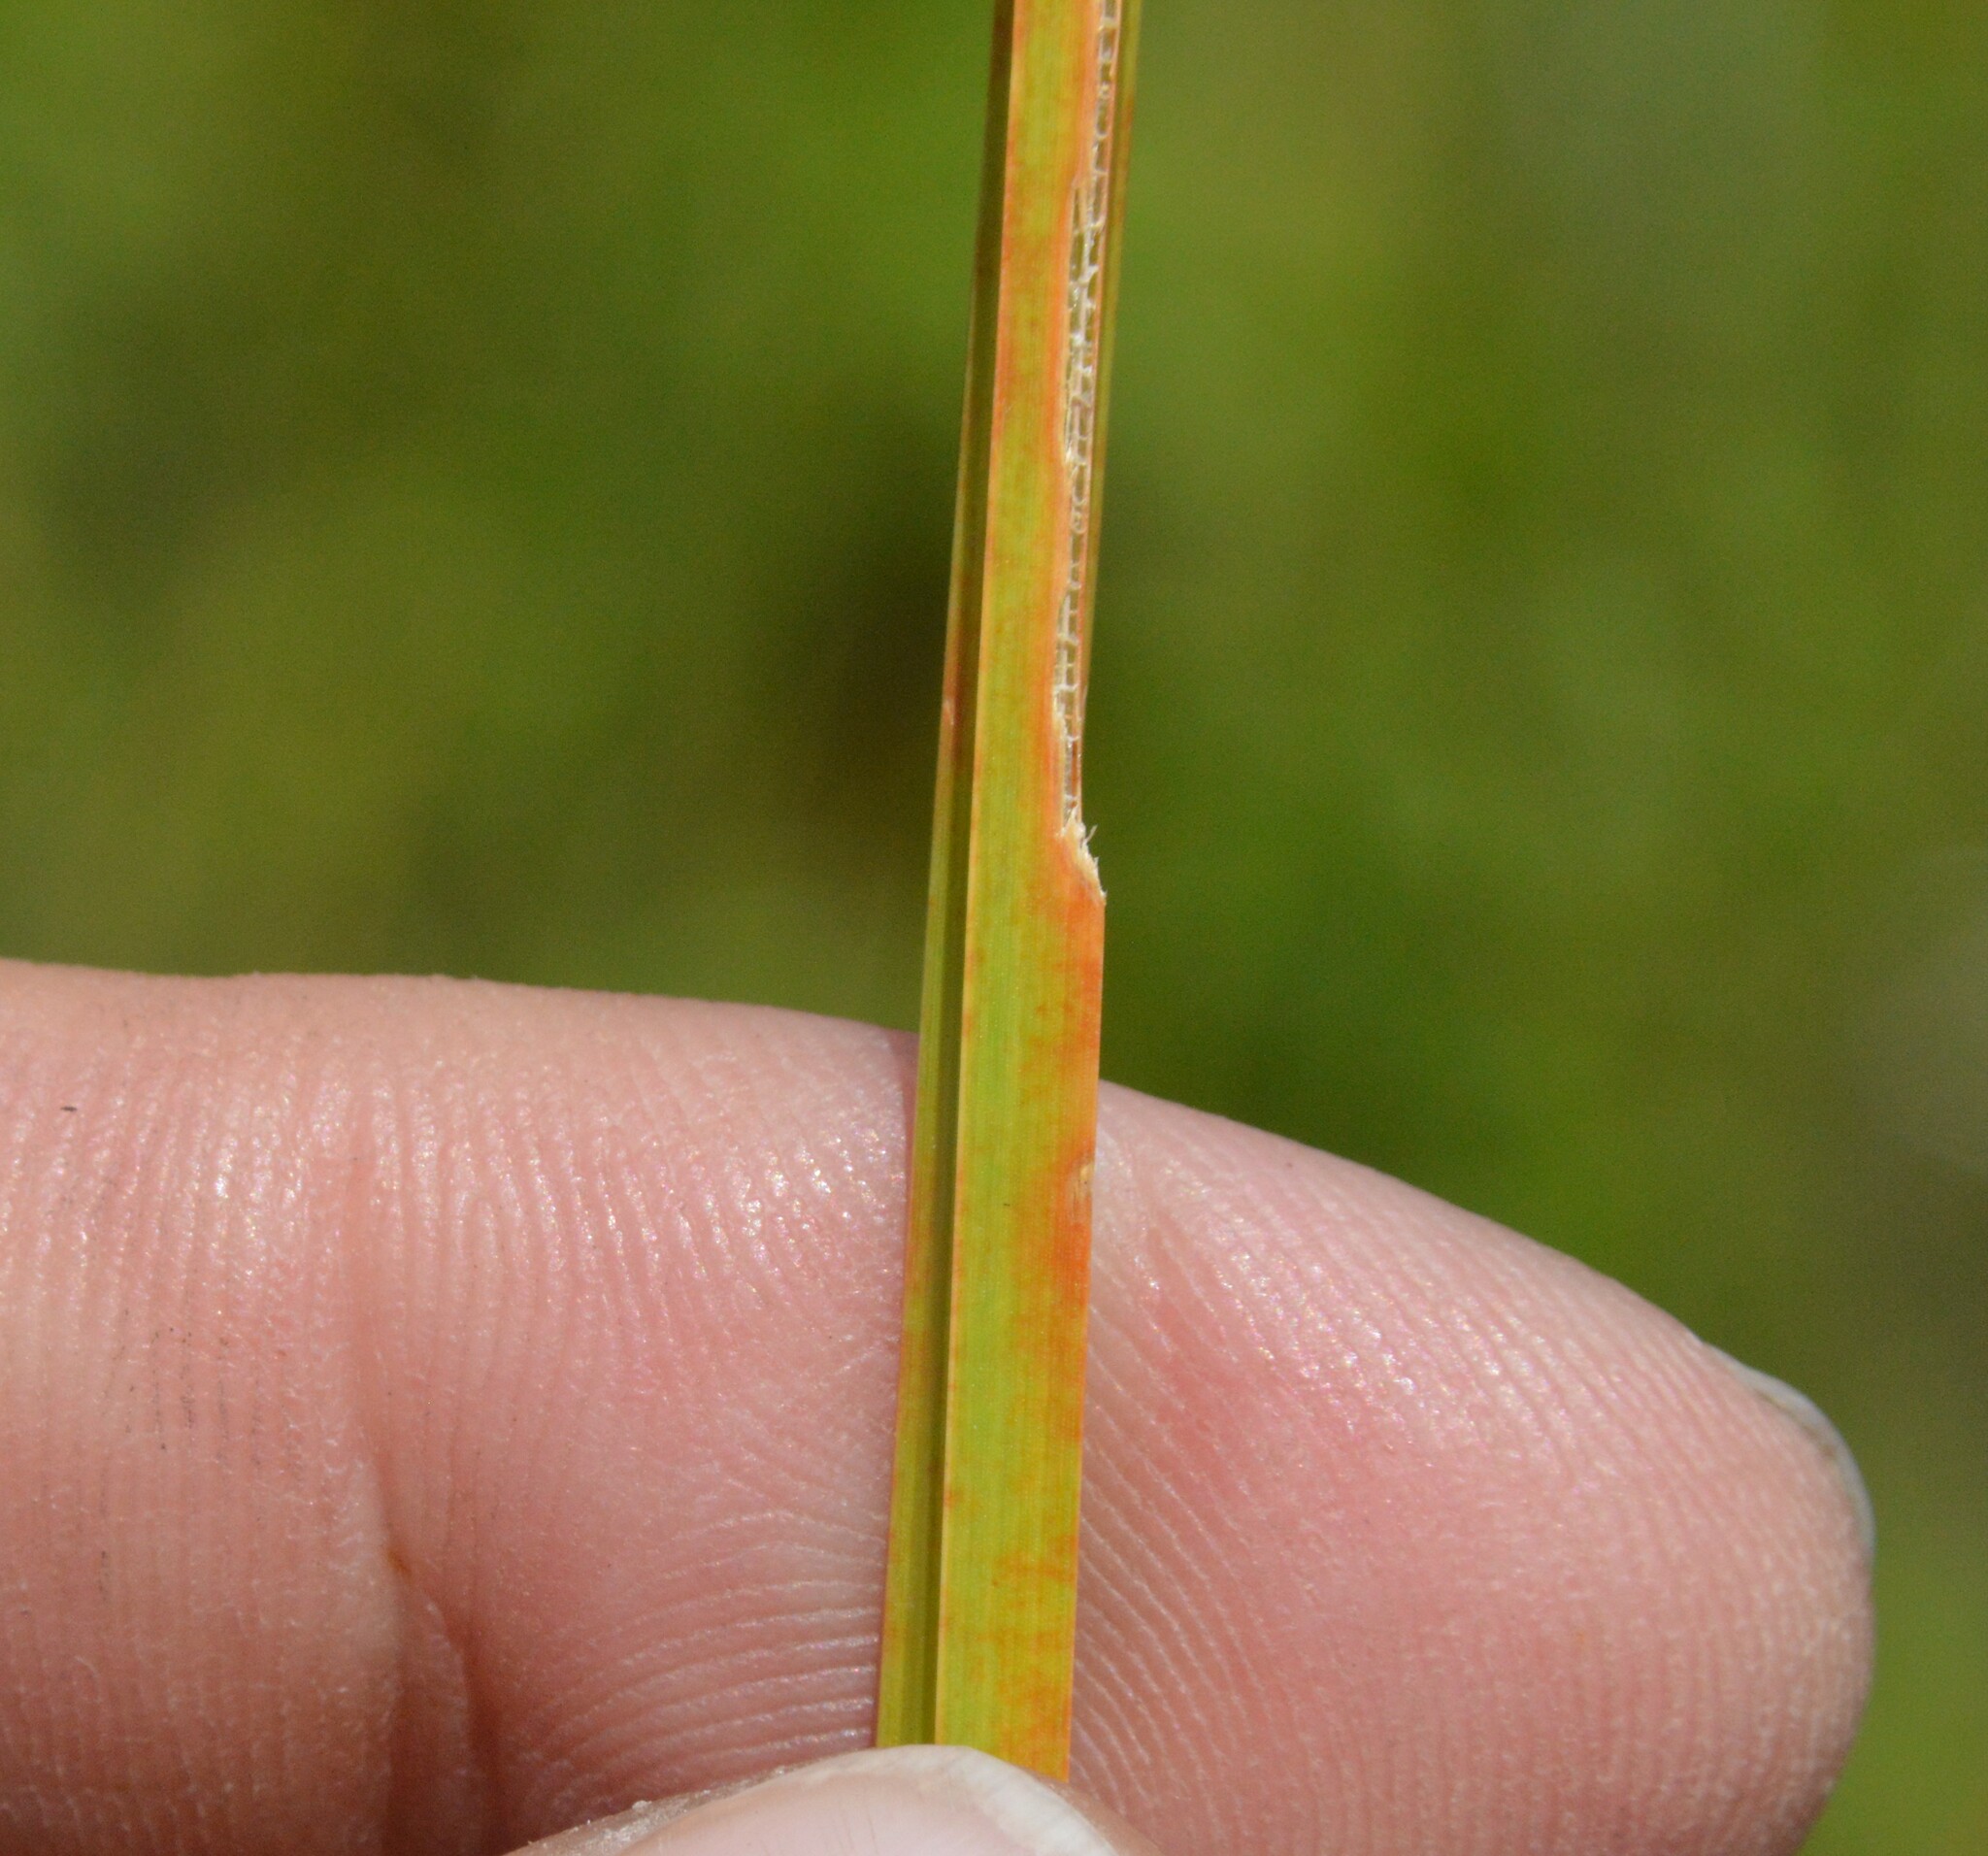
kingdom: Plantae
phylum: Tracheophyta
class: Liliopsida
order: Poales
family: Cyperaceae
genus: Eleocharis
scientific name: Eleocharis quadrangulata
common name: Square-stem spike-rush
